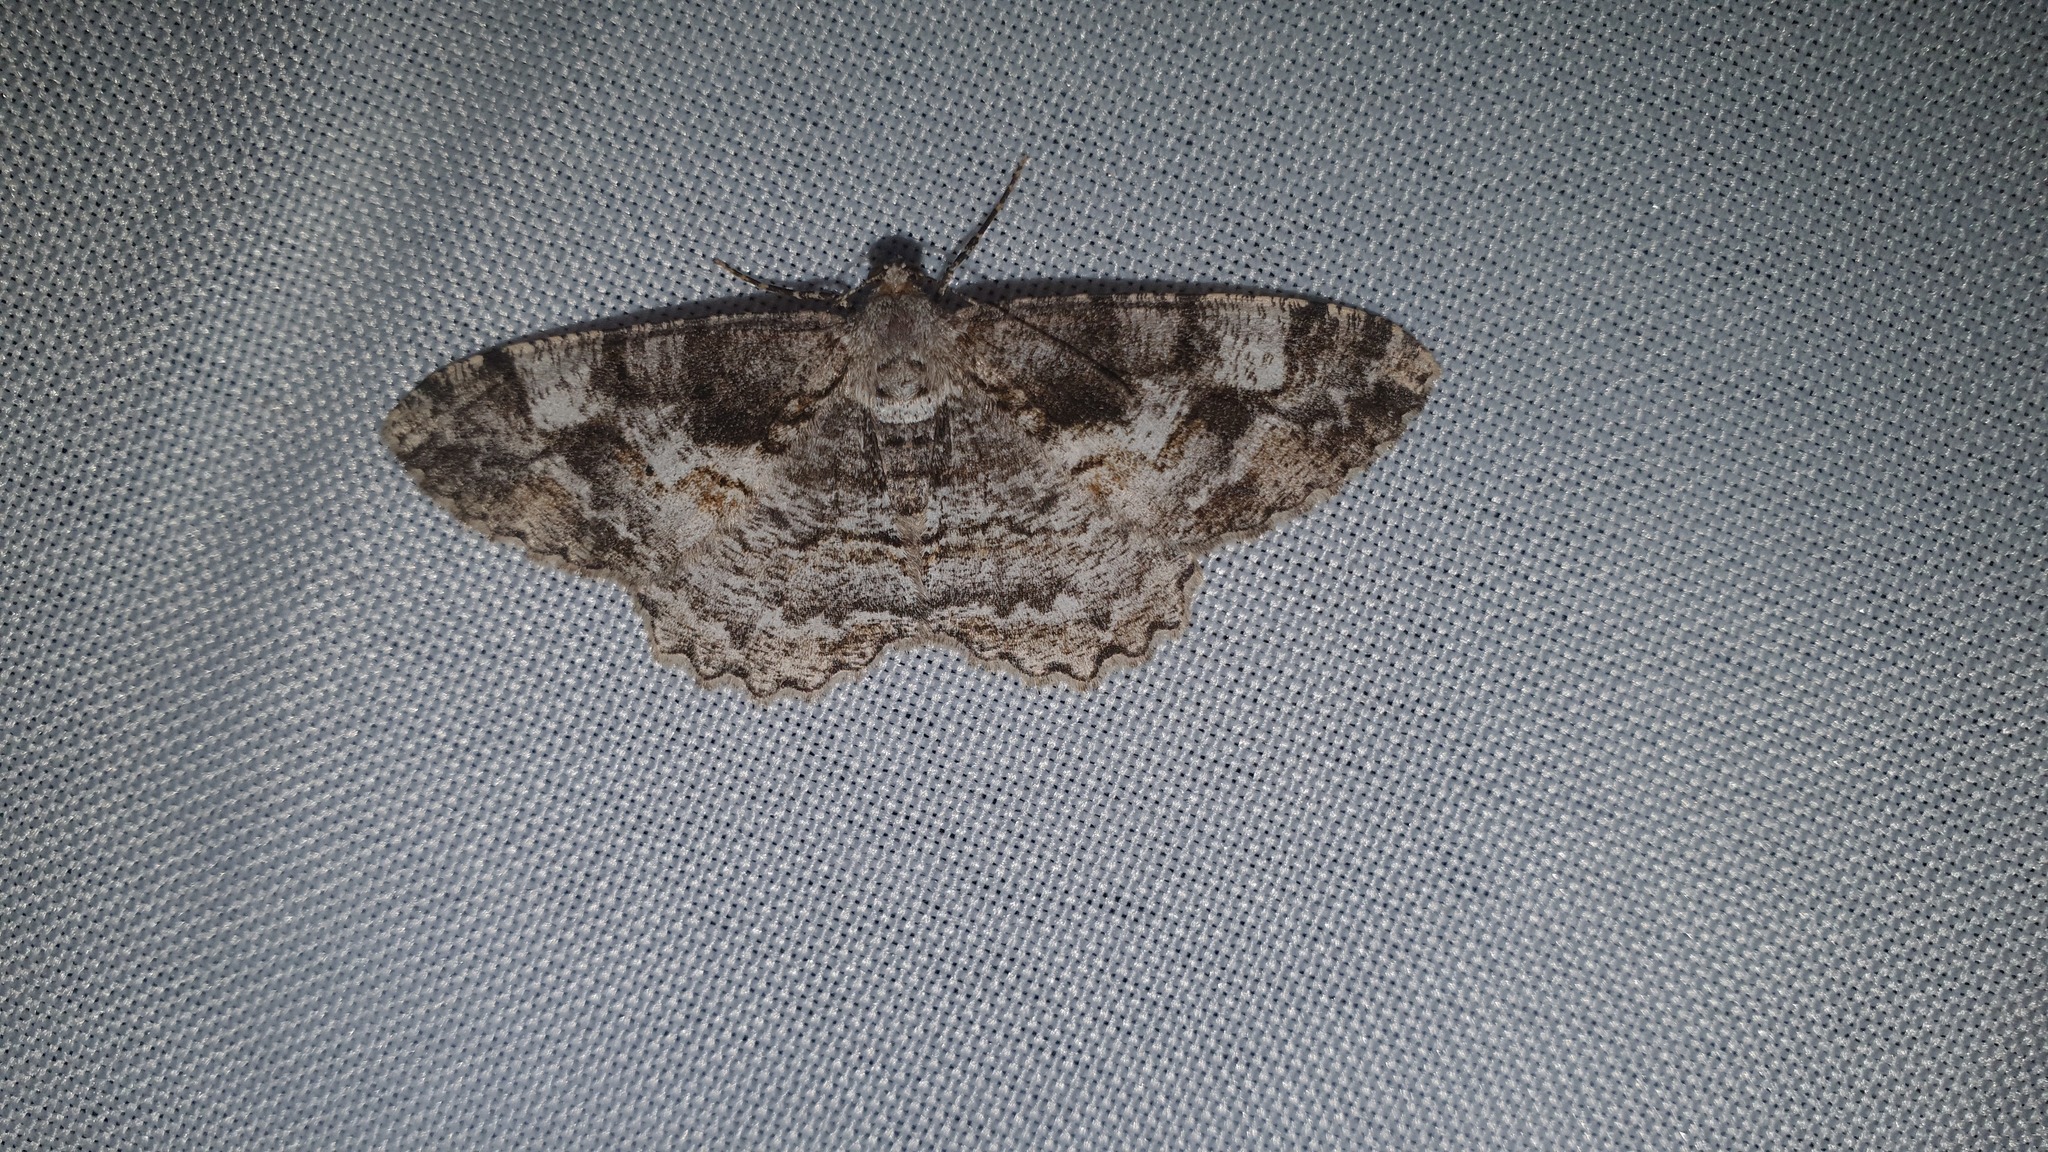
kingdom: Animalia
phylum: Arthropoda
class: Insecta
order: Lepidoptera
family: Geometridae
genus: Alcis
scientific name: Alcis repandata
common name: Mottled beauty
